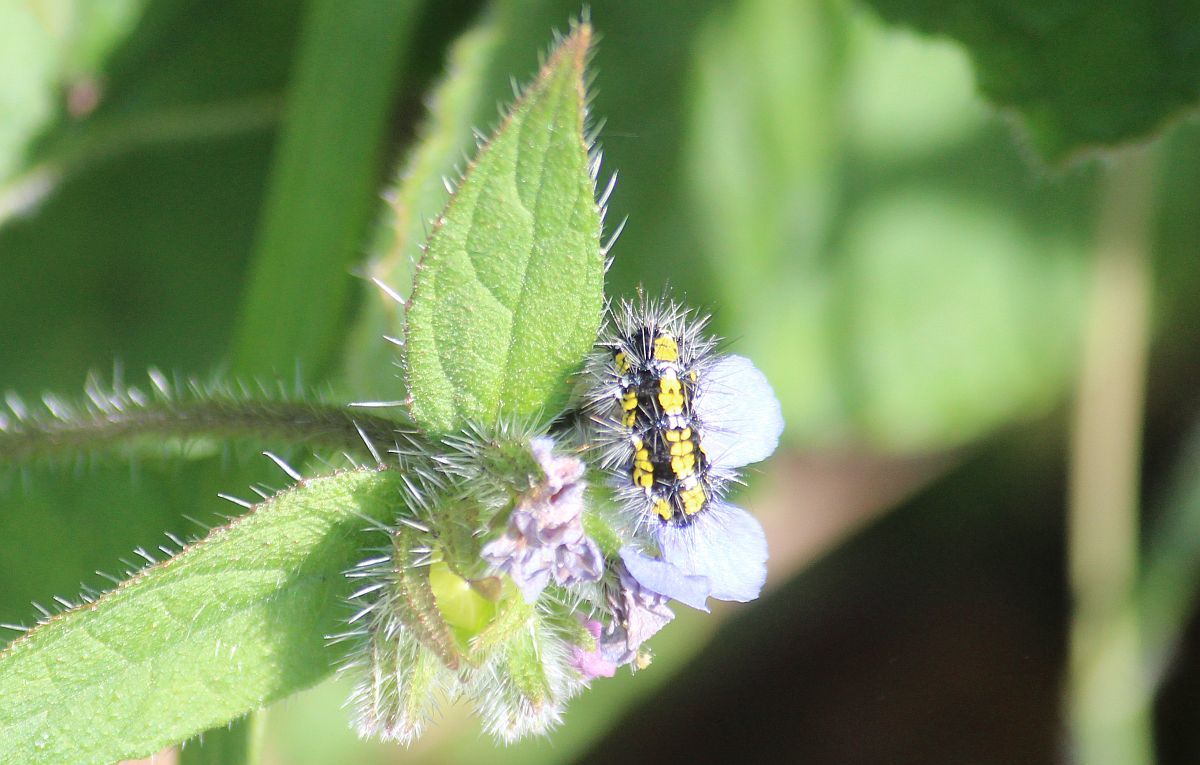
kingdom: Animalia
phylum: Arthropoda
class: Insecta
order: Lepidoptera
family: Erebidae
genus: Callimorpha
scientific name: Callimorpha dominula
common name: Scarlet tiger
